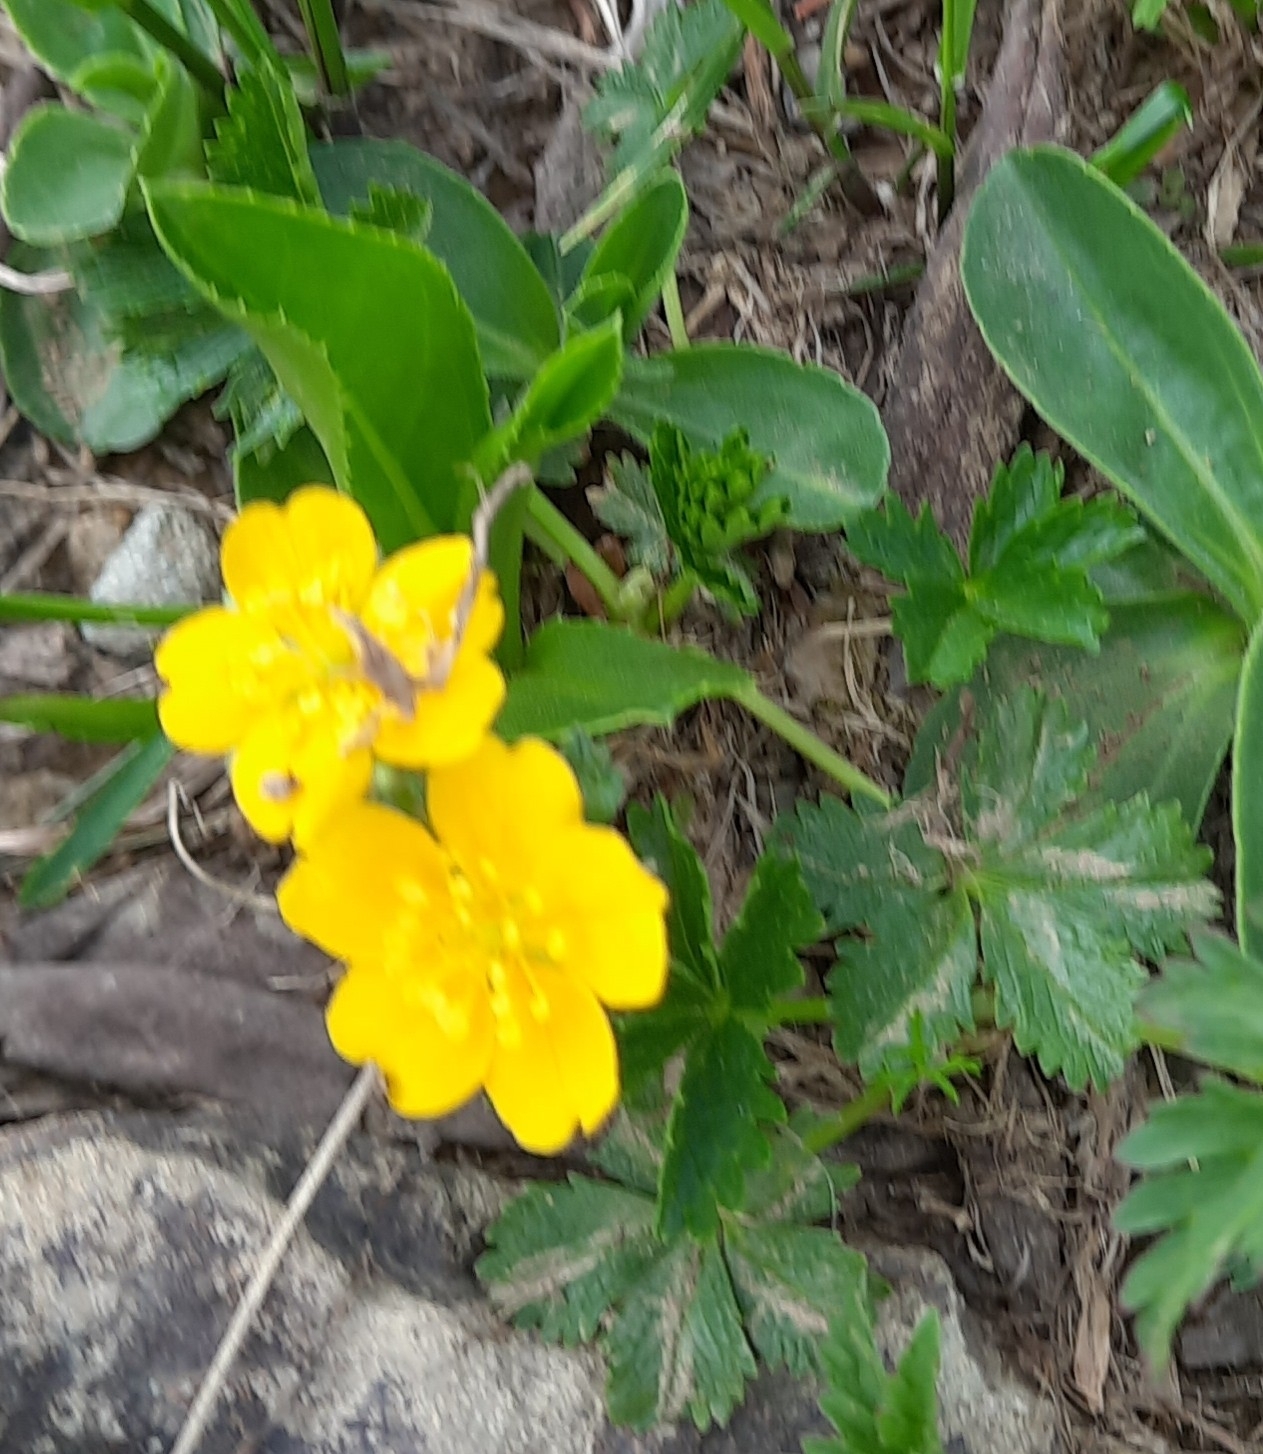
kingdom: Plantae
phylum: Tracheophyta
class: Magnoliopsida
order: Rosales
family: Rosaceae
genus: Potentilla
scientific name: Potentilla ruprechtii
